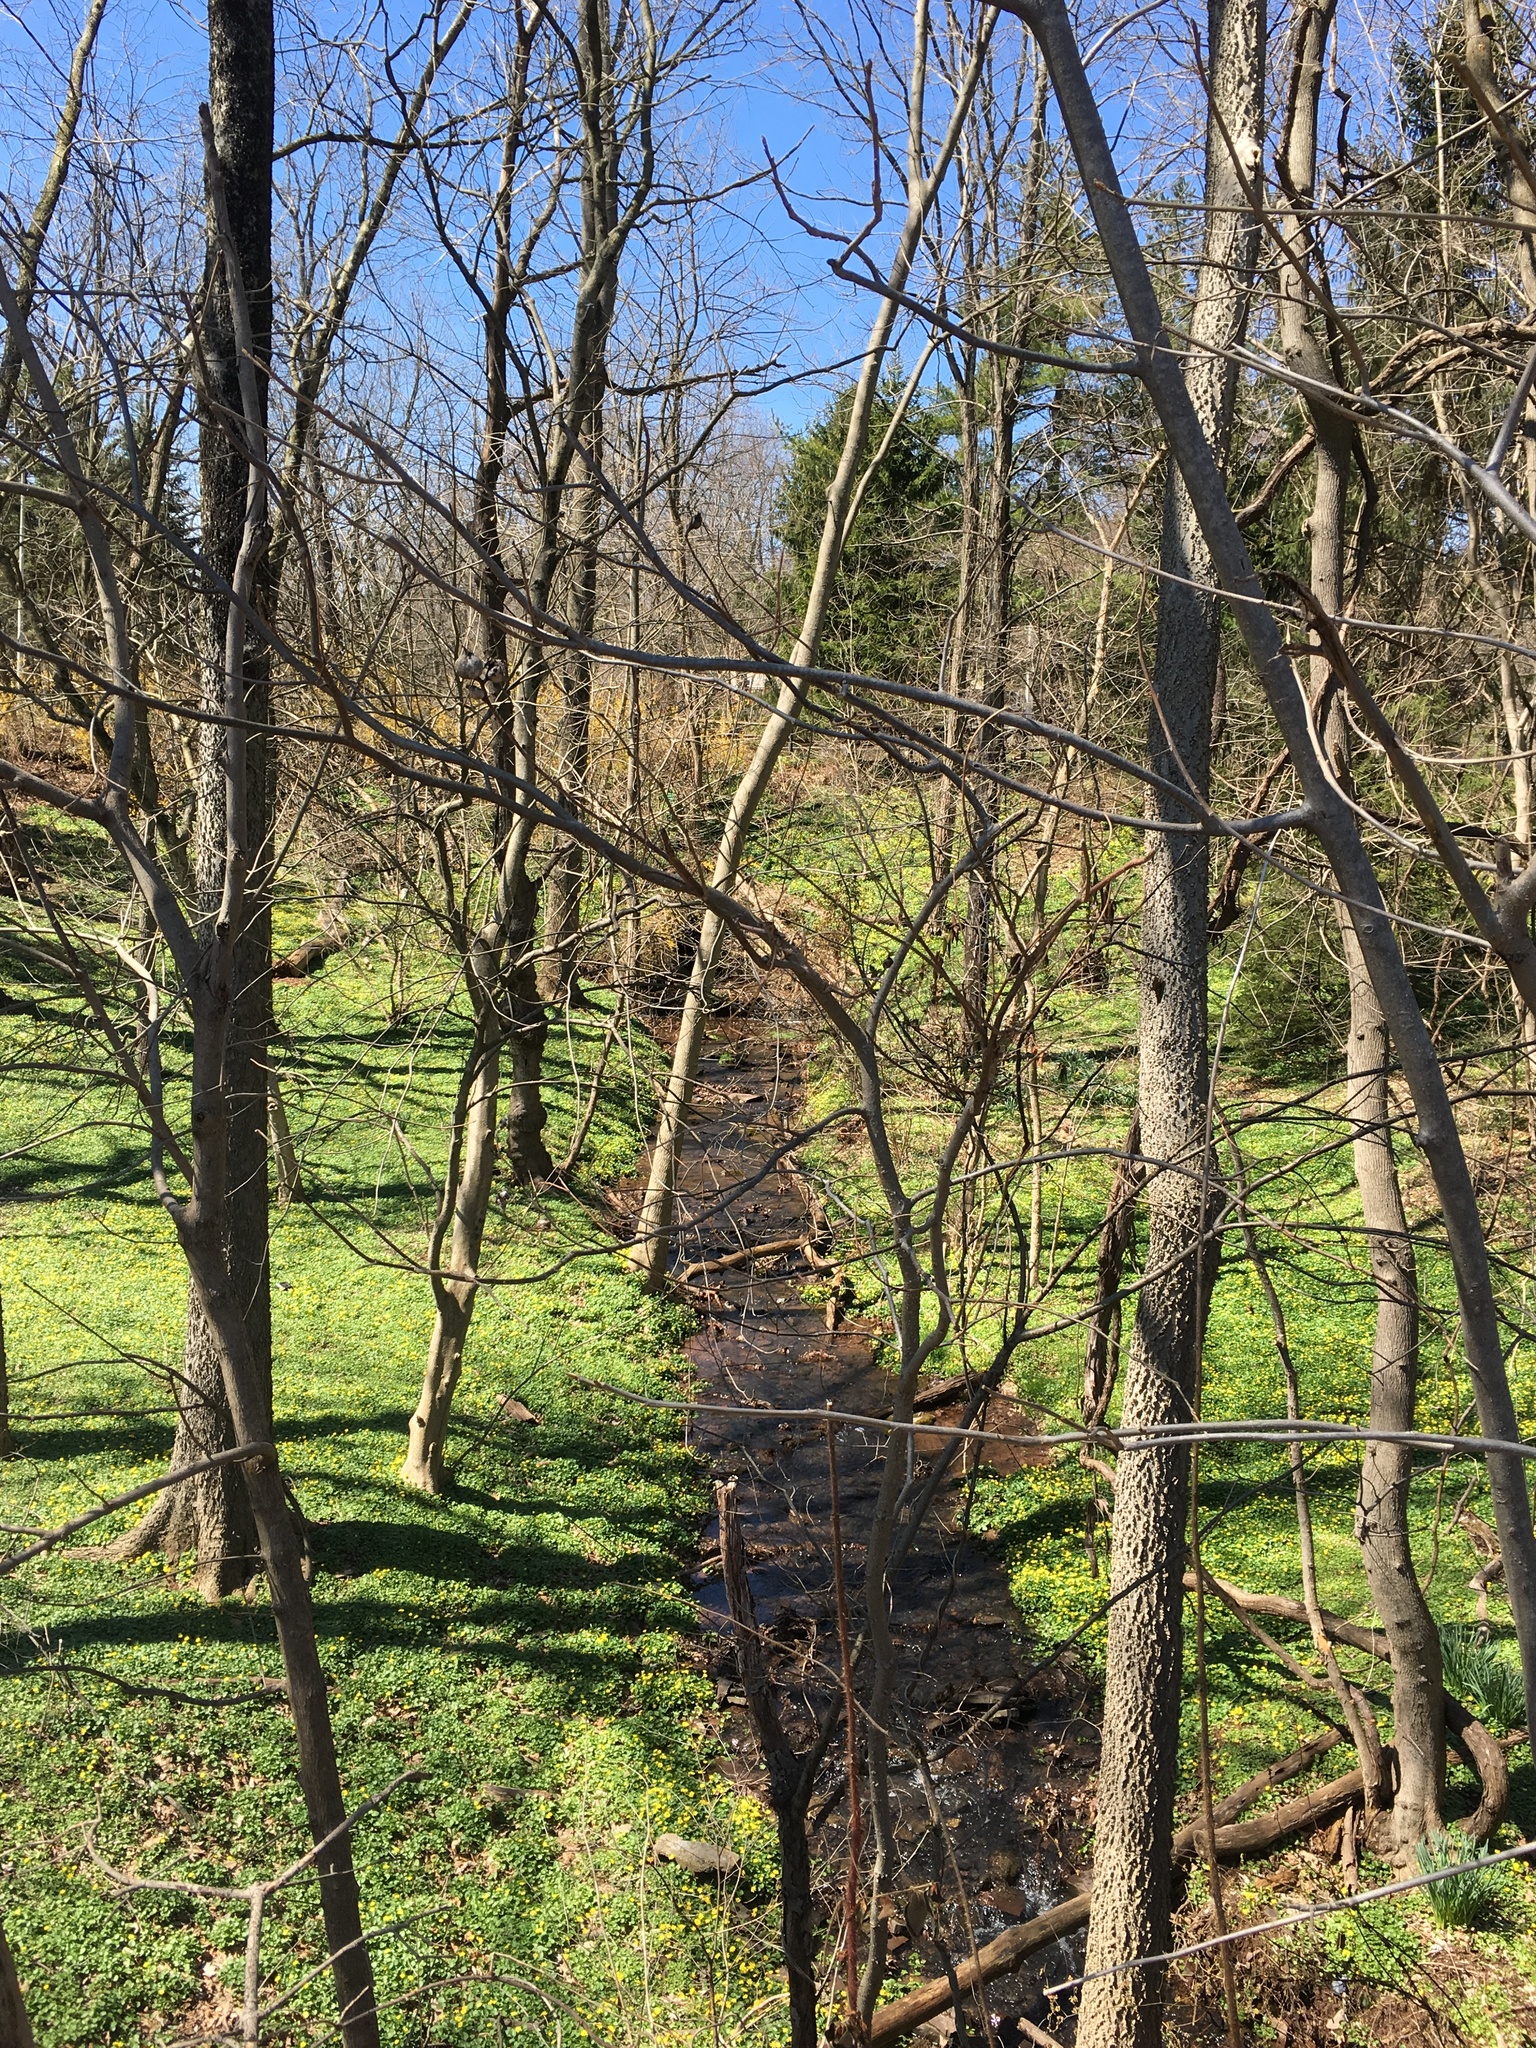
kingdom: Plantae
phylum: Tracheophyta
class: Magnoliopsida
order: Rosales
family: Cannabaceae
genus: Celtis
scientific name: Celtis occidentalis
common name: Common hackberry
